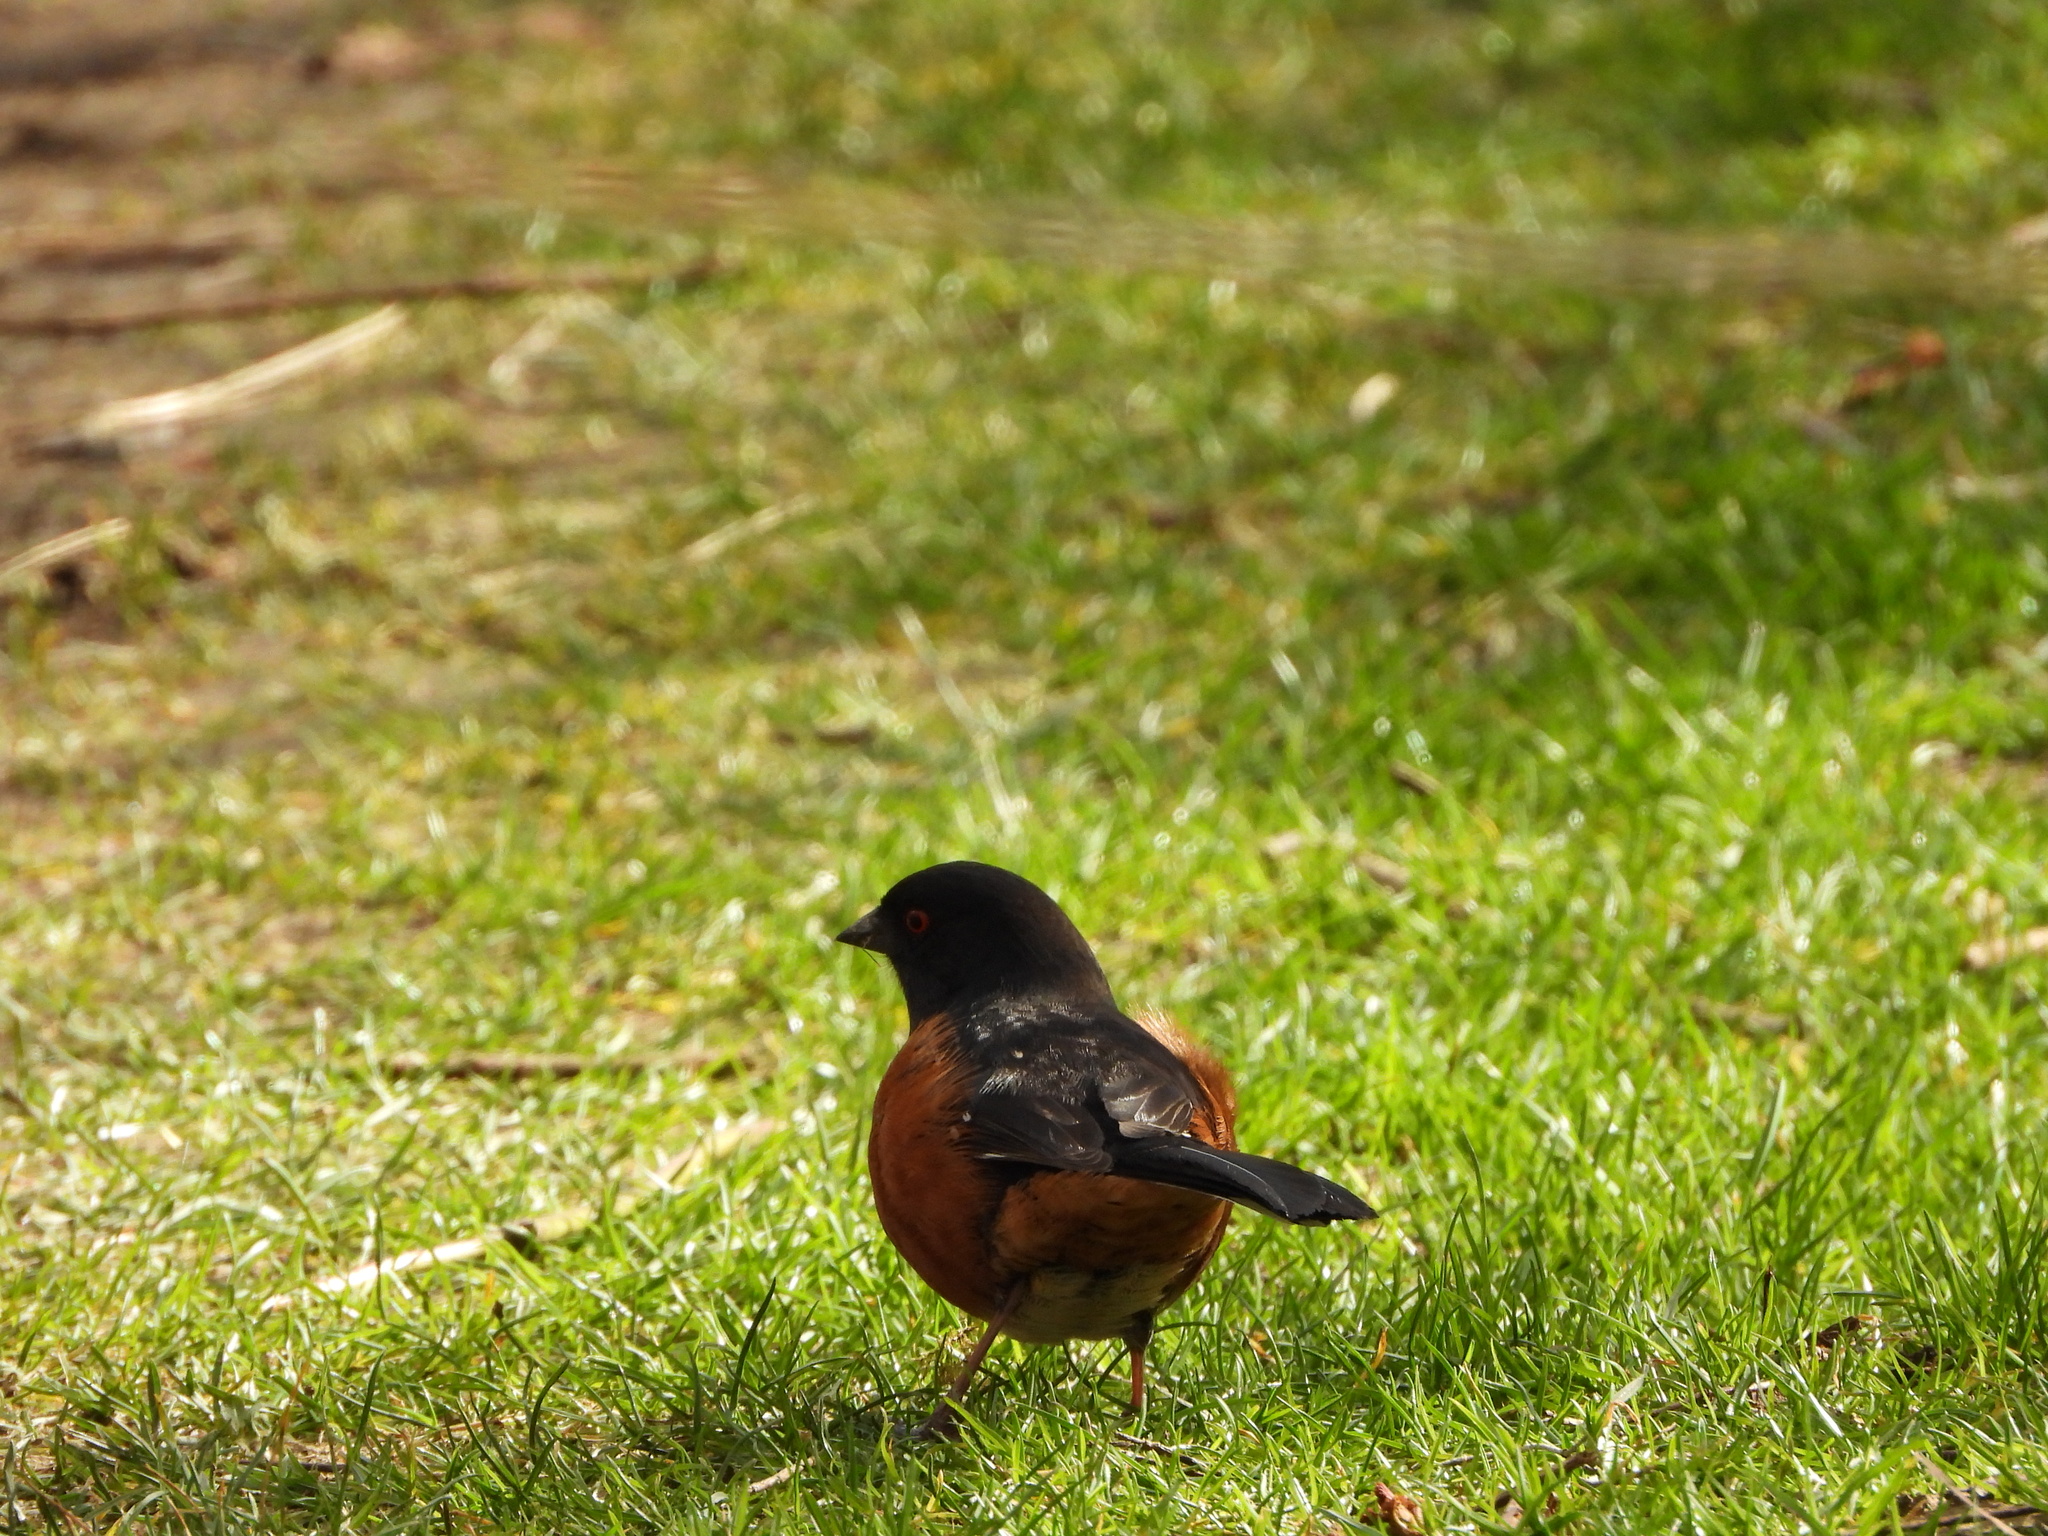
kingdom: Animalia
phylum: Chordata
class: Aves
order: Passeriformes
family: Passerellidae
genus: Pipilo
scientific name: Pipilo maculatus
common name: Spotted towhee
